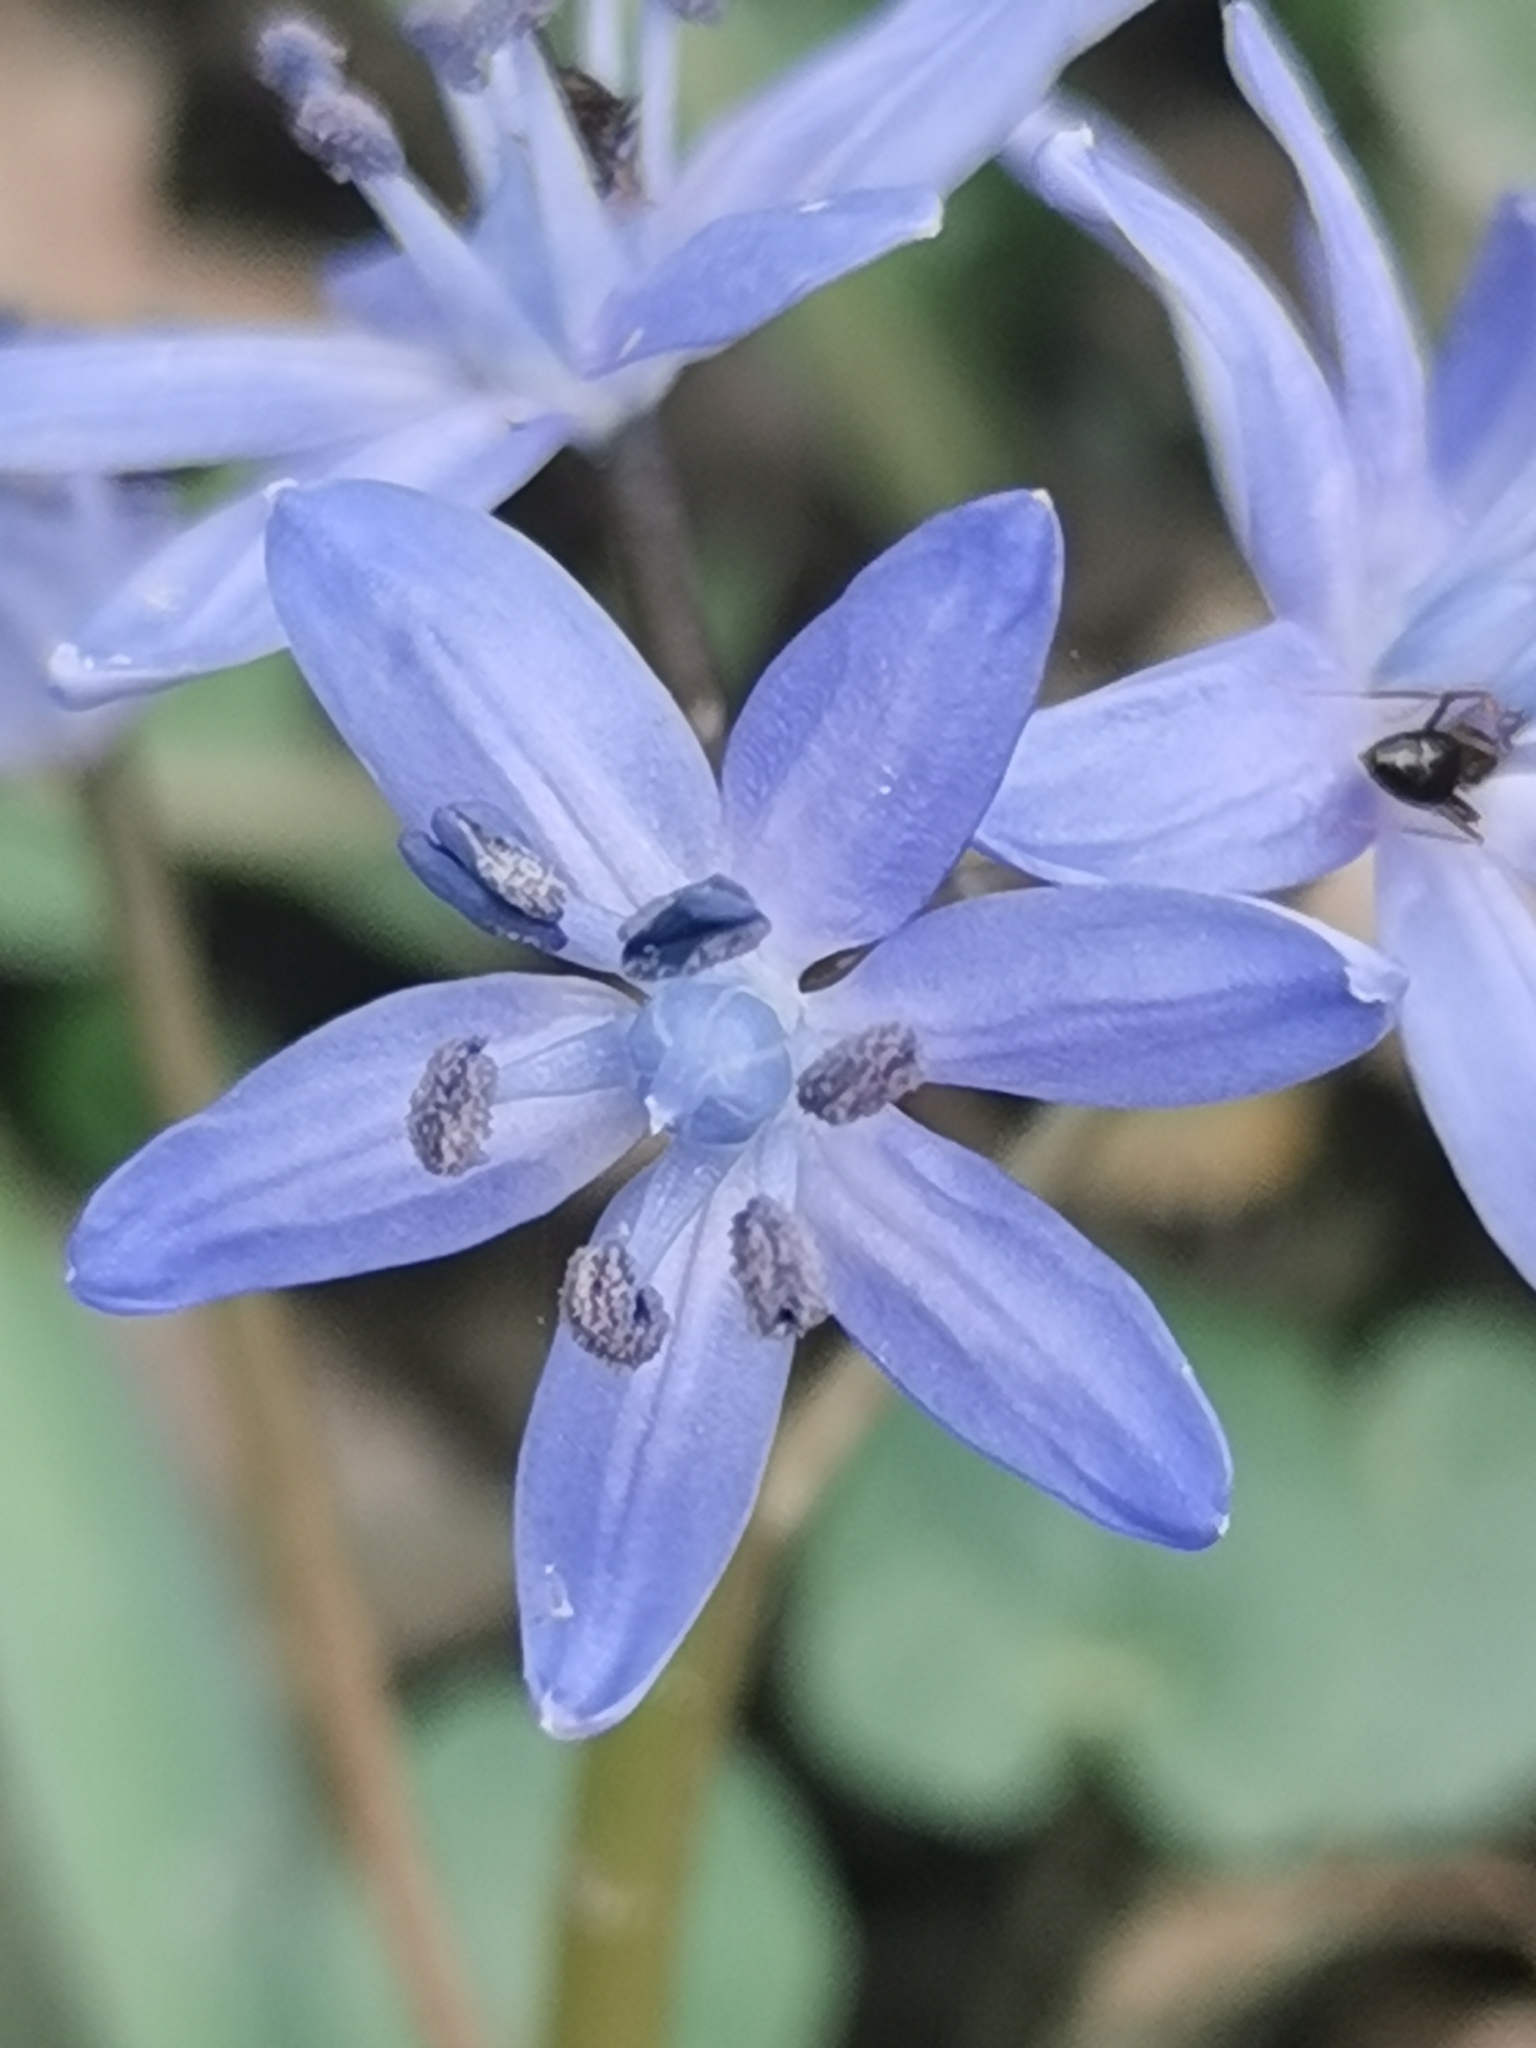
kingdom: Plantae
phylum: Tracheophyta
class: Liliopsida
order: Asparagales
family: Asparagaceae
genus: Scilla
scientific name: Scilla bifolia
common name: Alpine squill
